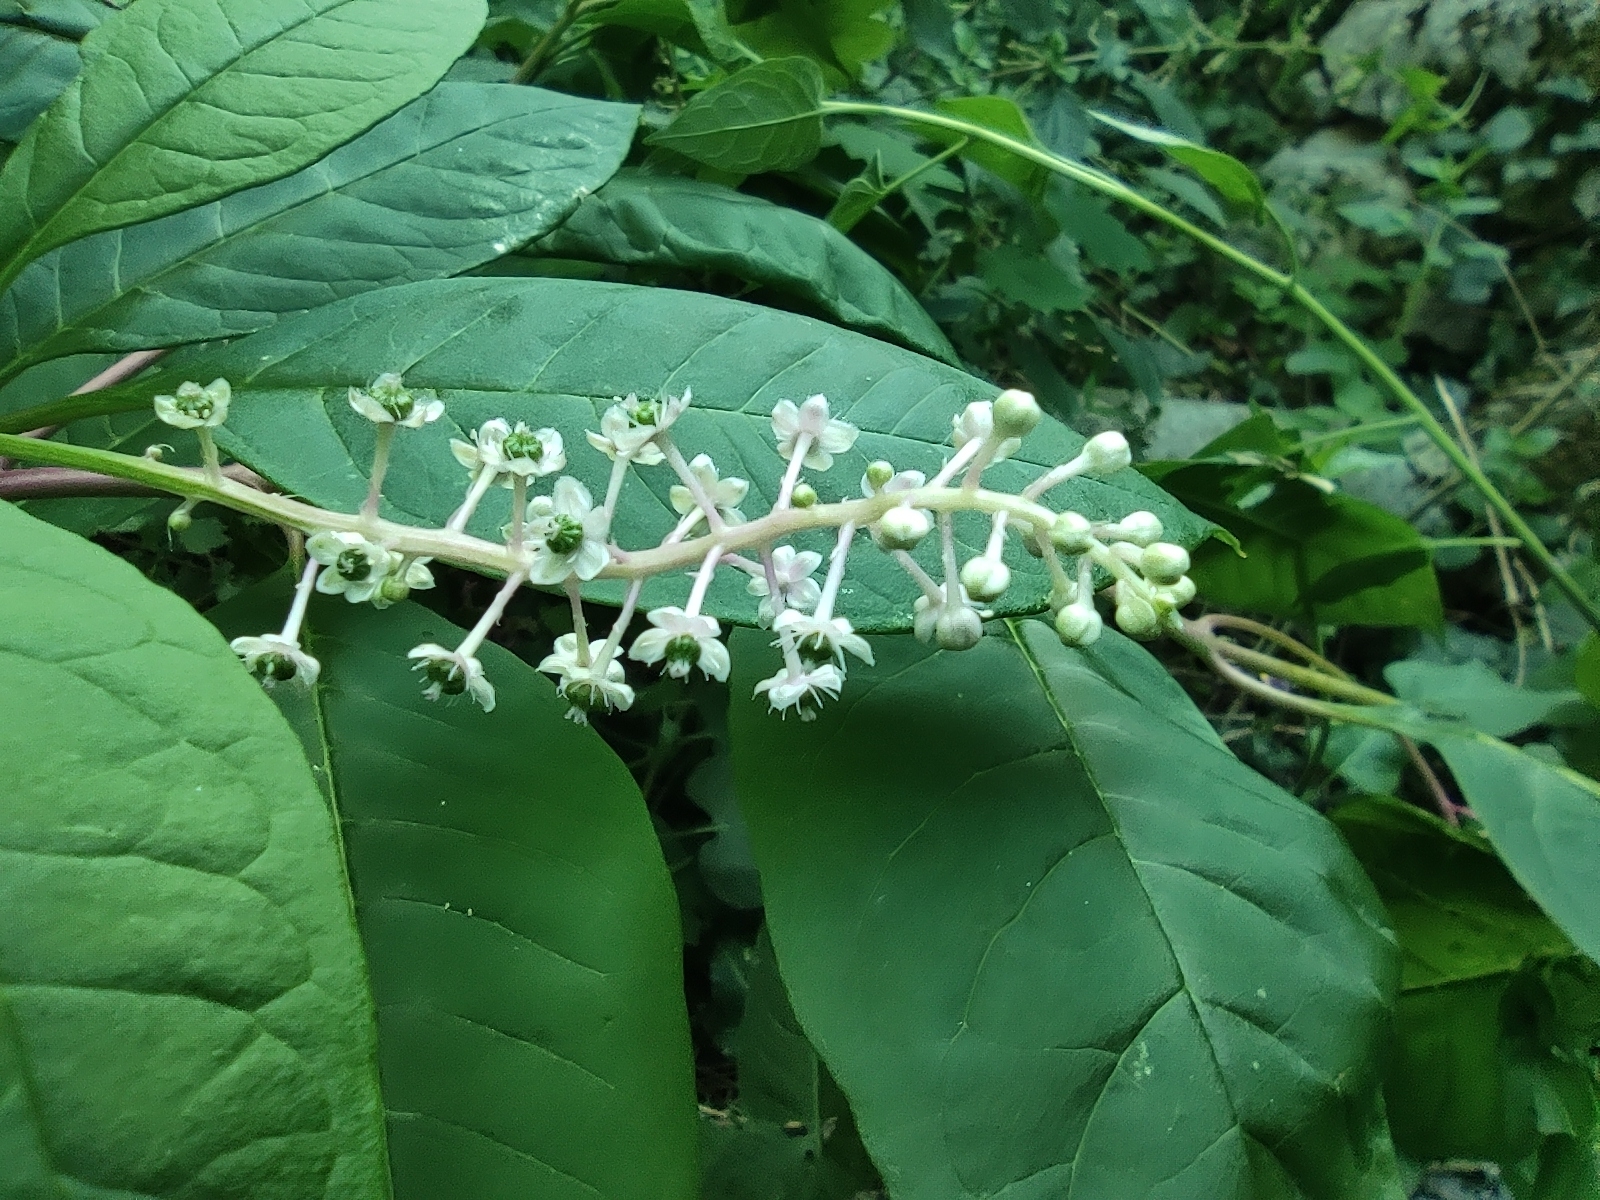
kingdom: Plantae
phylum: Tracheophyta
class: Magnoliopsida
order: Caryophyllales
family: Phytolaccaceae
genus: Phytolacca
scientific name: Phytolacca americana
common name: American pokeweed
